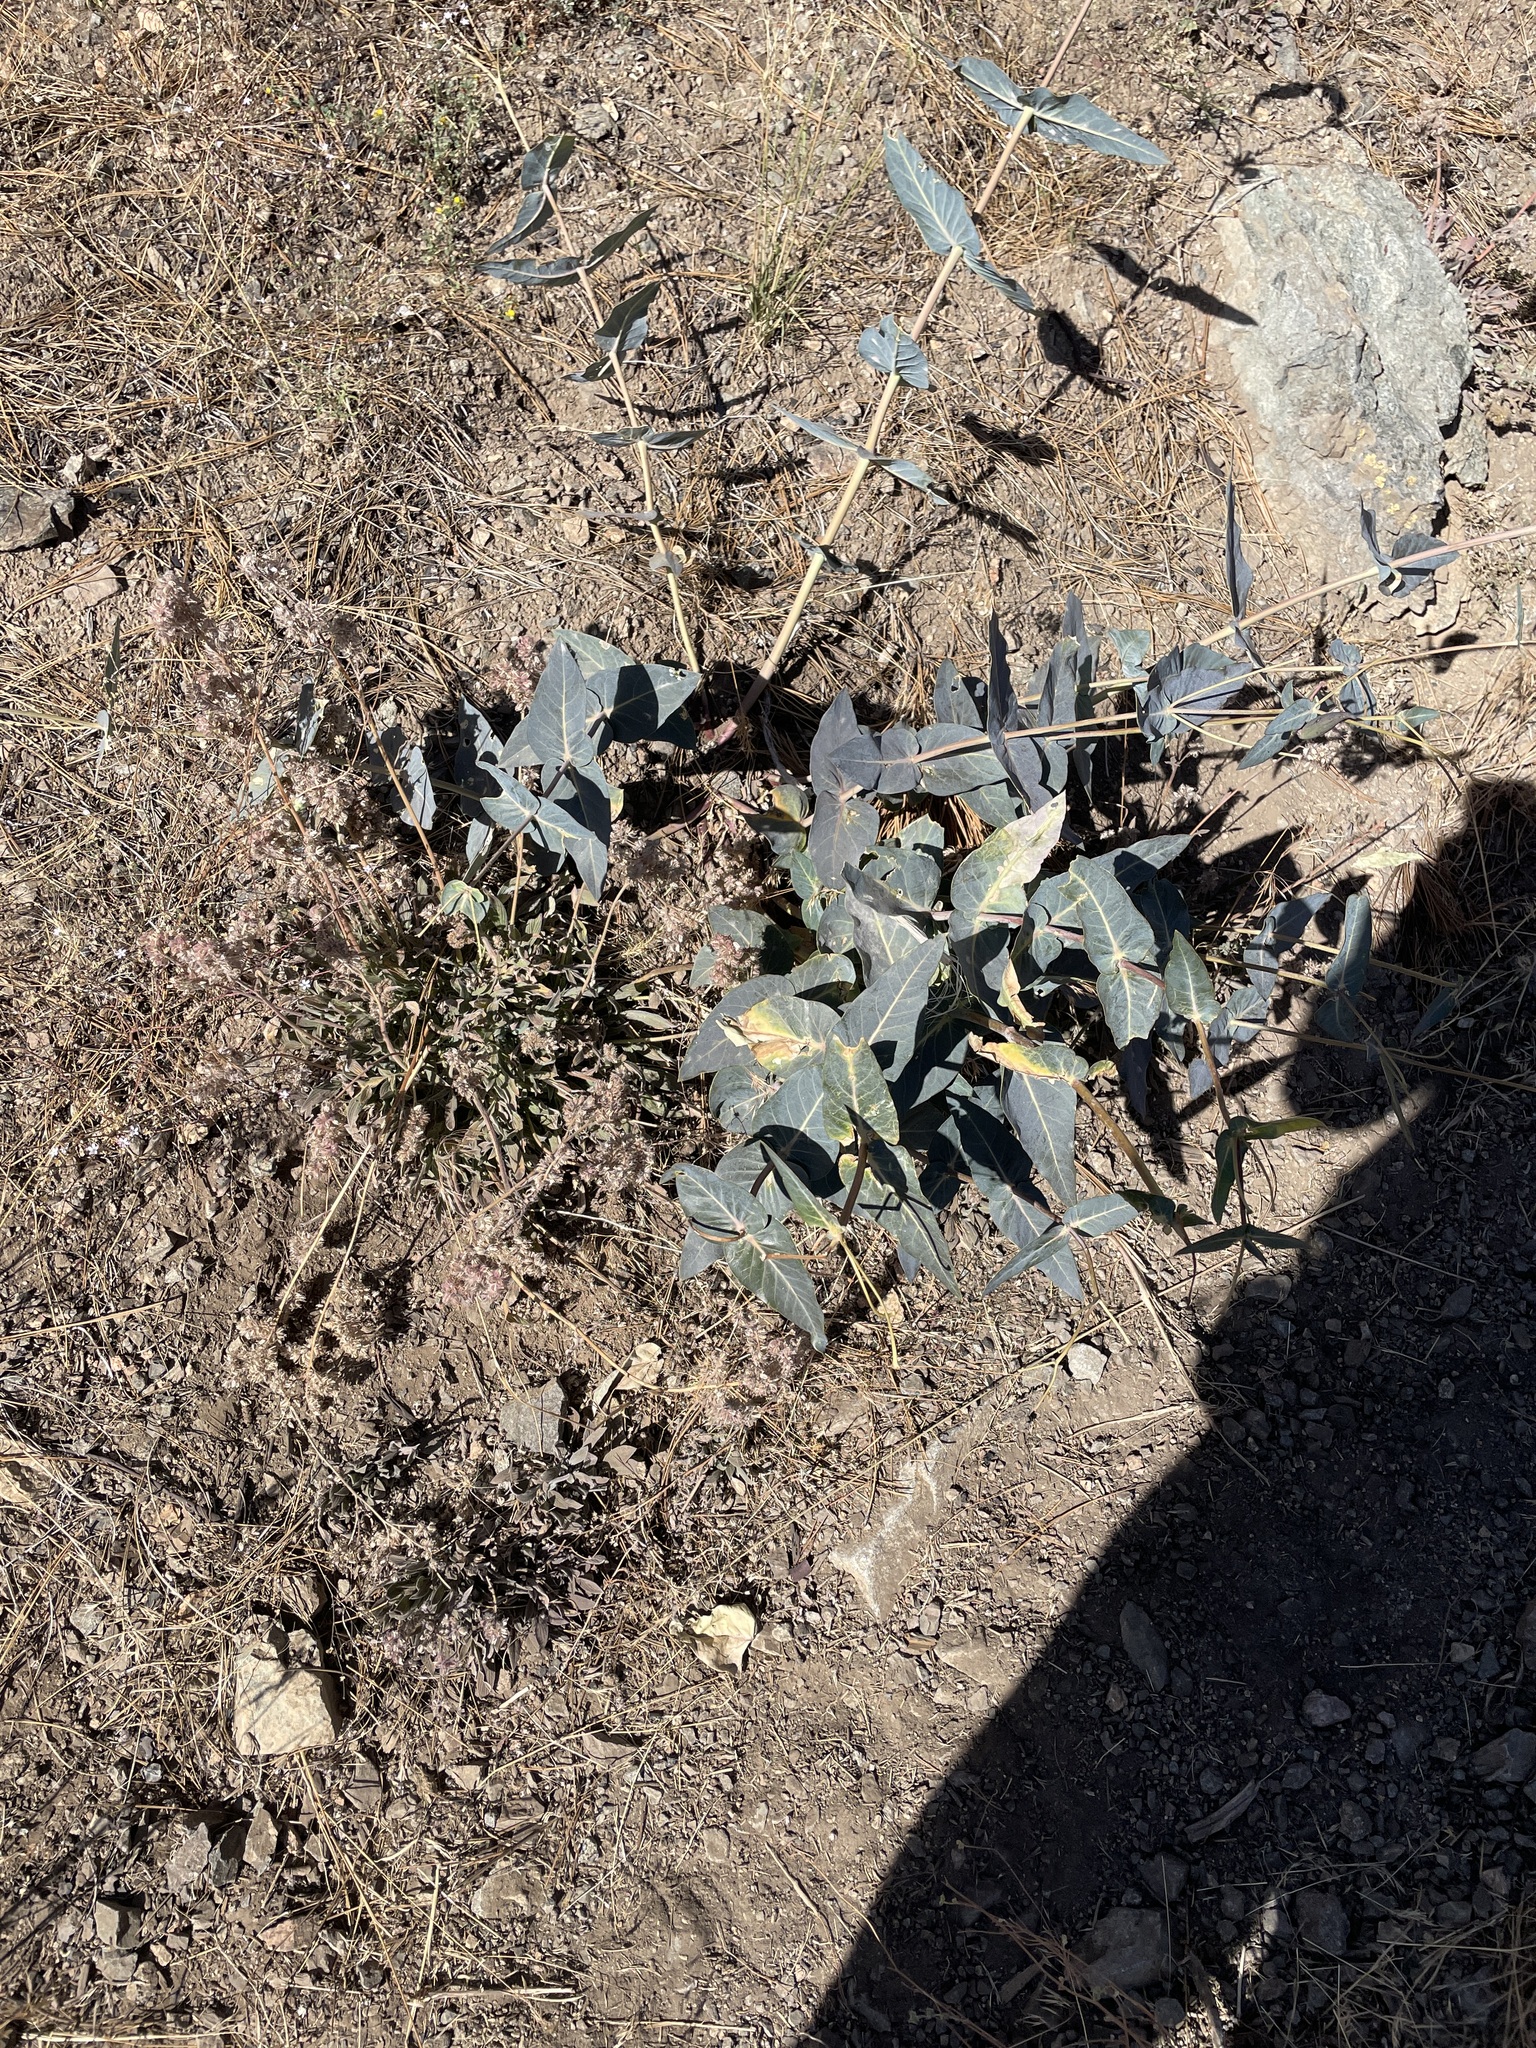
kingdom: Plantae
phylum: Tracheophyta
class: Magnoliopsida
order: Gentianales
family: Apocynaceae
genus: Asclepias
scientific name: Asclepias cordifolia
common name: Purple milkweed
